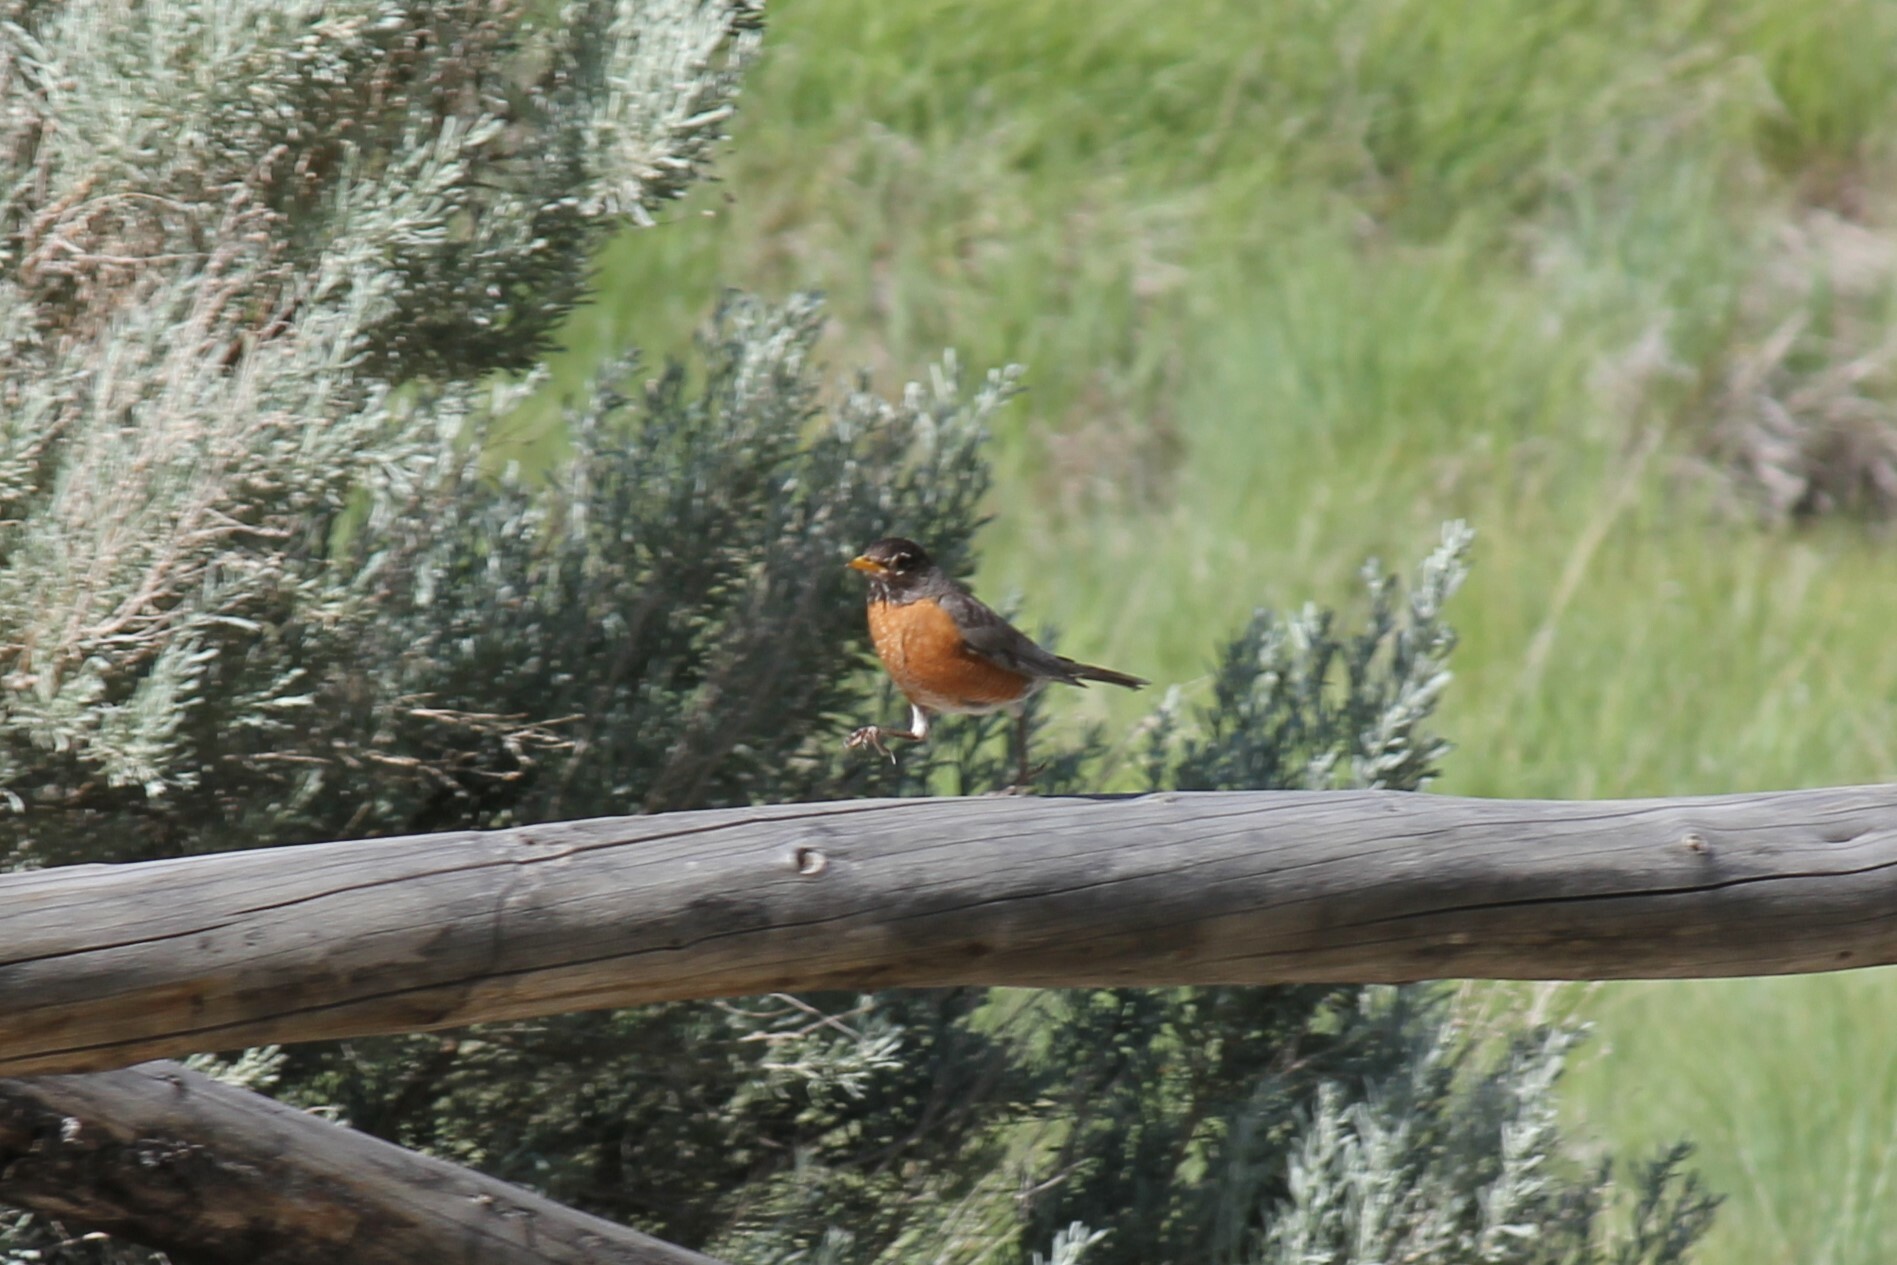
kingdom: Animalia
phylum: Chordata
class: Aves
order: Passeriformes
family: Turdidae
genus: Turdus
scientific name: Turdus migratorius
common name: American robin
